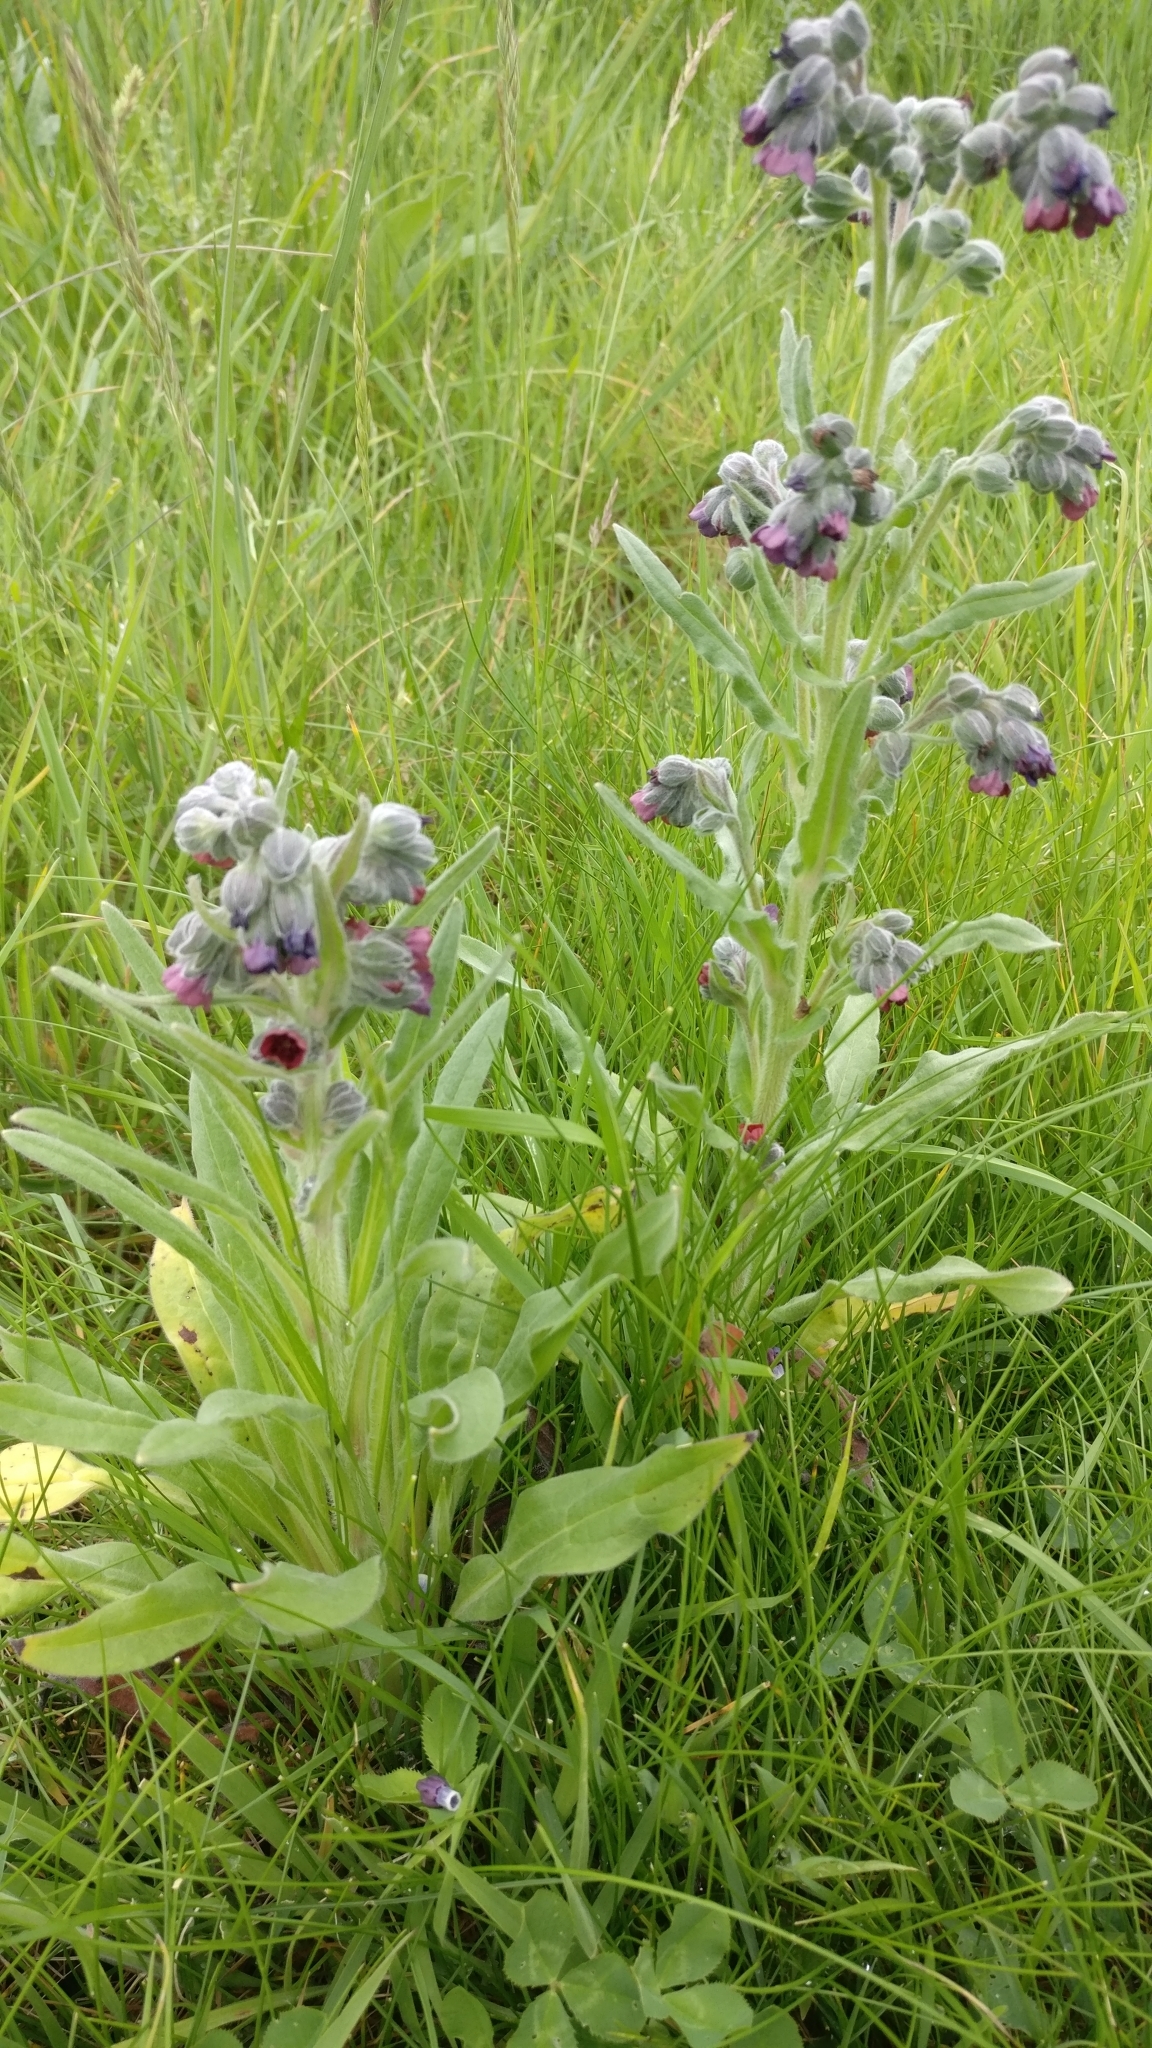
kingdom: Plantae
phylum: Tracheophyta
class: Magnoliopsida
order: Boraginales
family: Boraginaceae
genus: Cynoglossum
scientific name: Cynoglossum officinale
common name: Hound's-tongue
